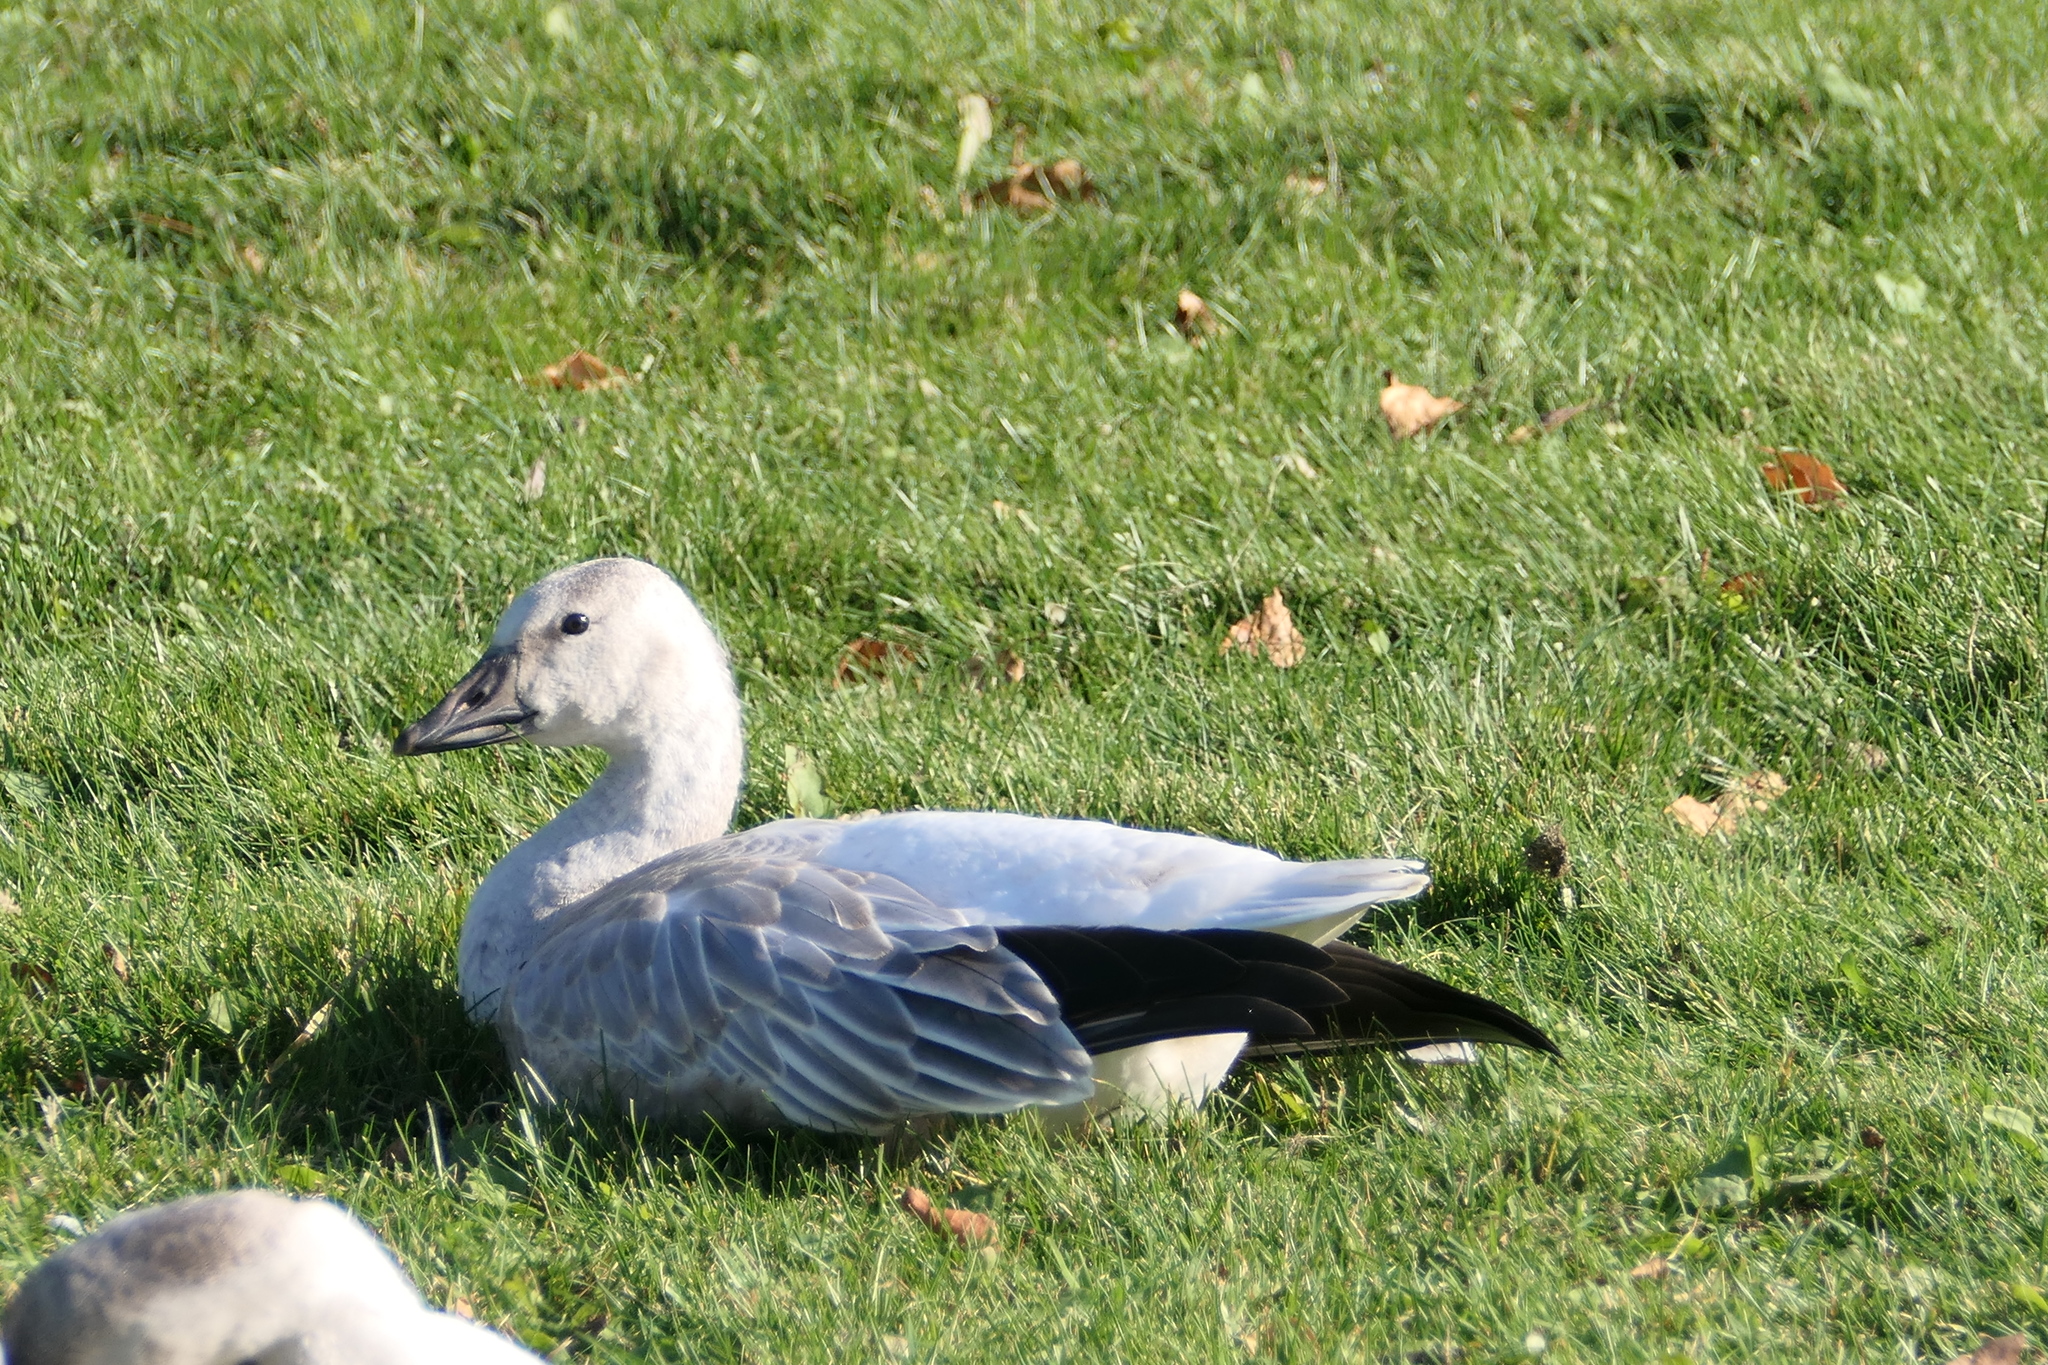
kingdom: Animalia
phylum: Chordata
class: Aves
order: Anseriformes
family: Anatidae
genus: Anser
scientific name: Anser caerulescens
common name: Snow goose
